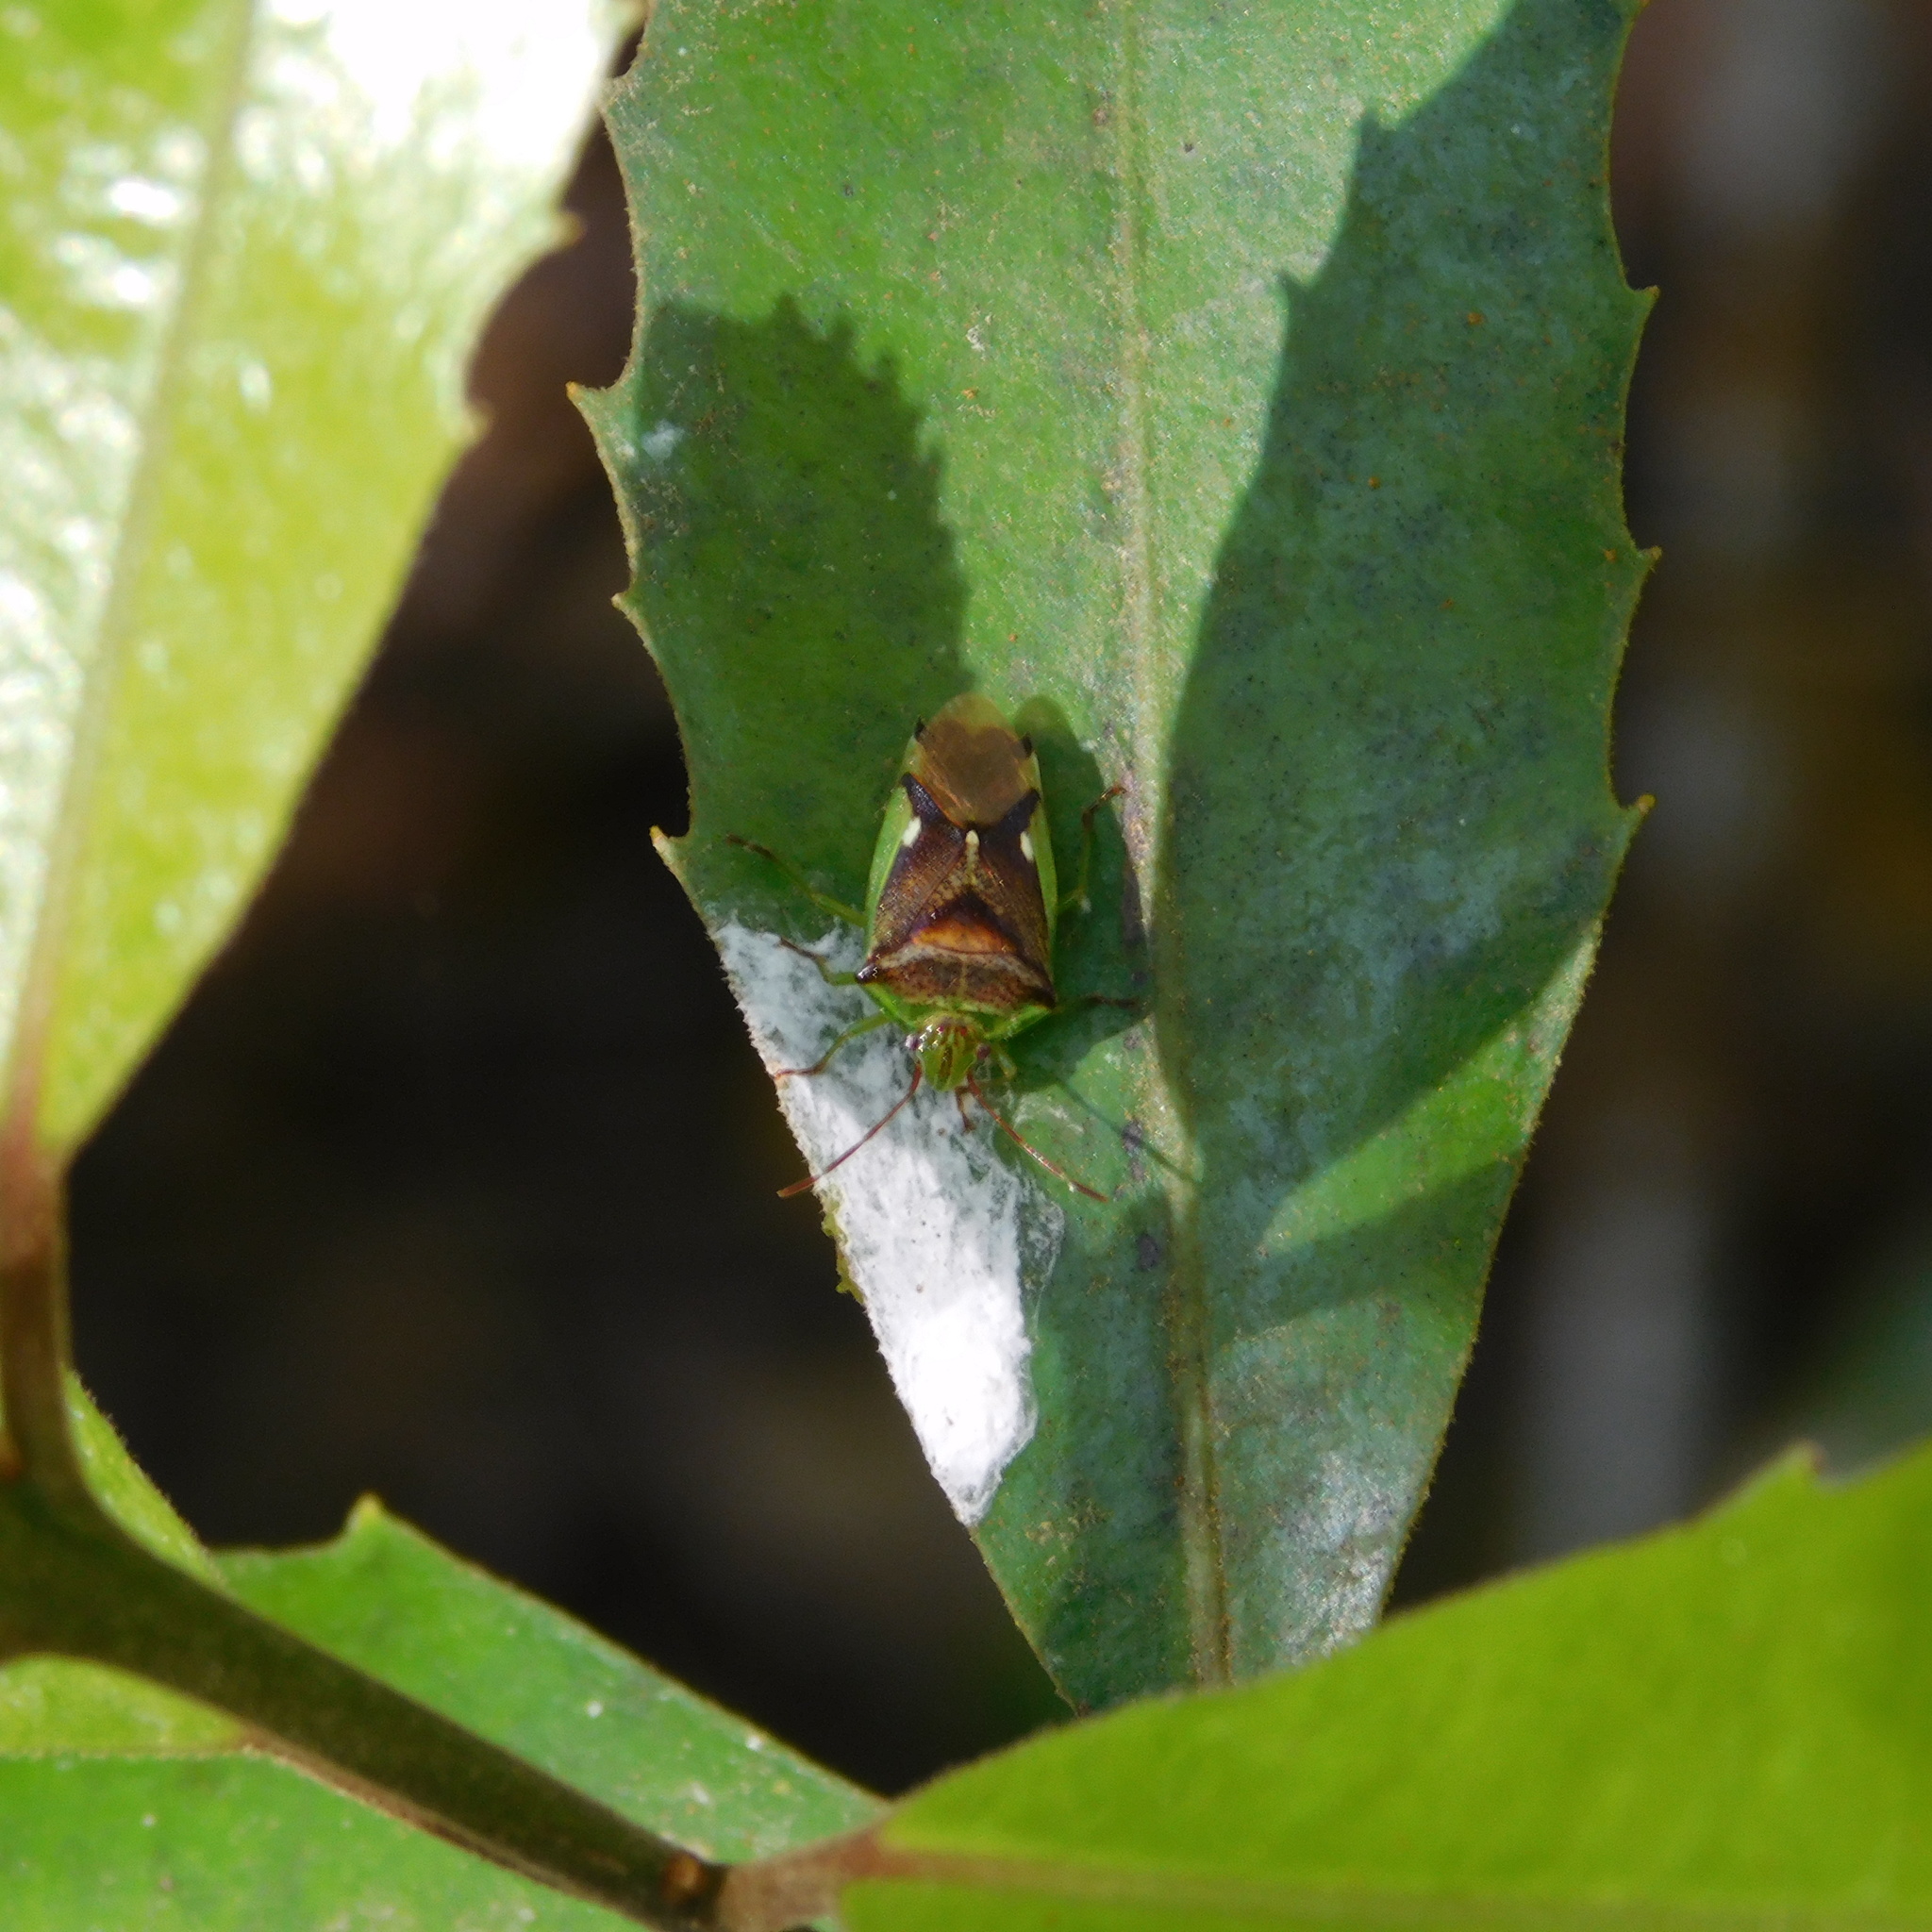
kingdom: Animalia
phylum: Arthropoda
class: Insecta
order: Hemiptera
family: Acanthosomatidae
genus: Oncacontias
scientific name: Oncacontias vittatus
